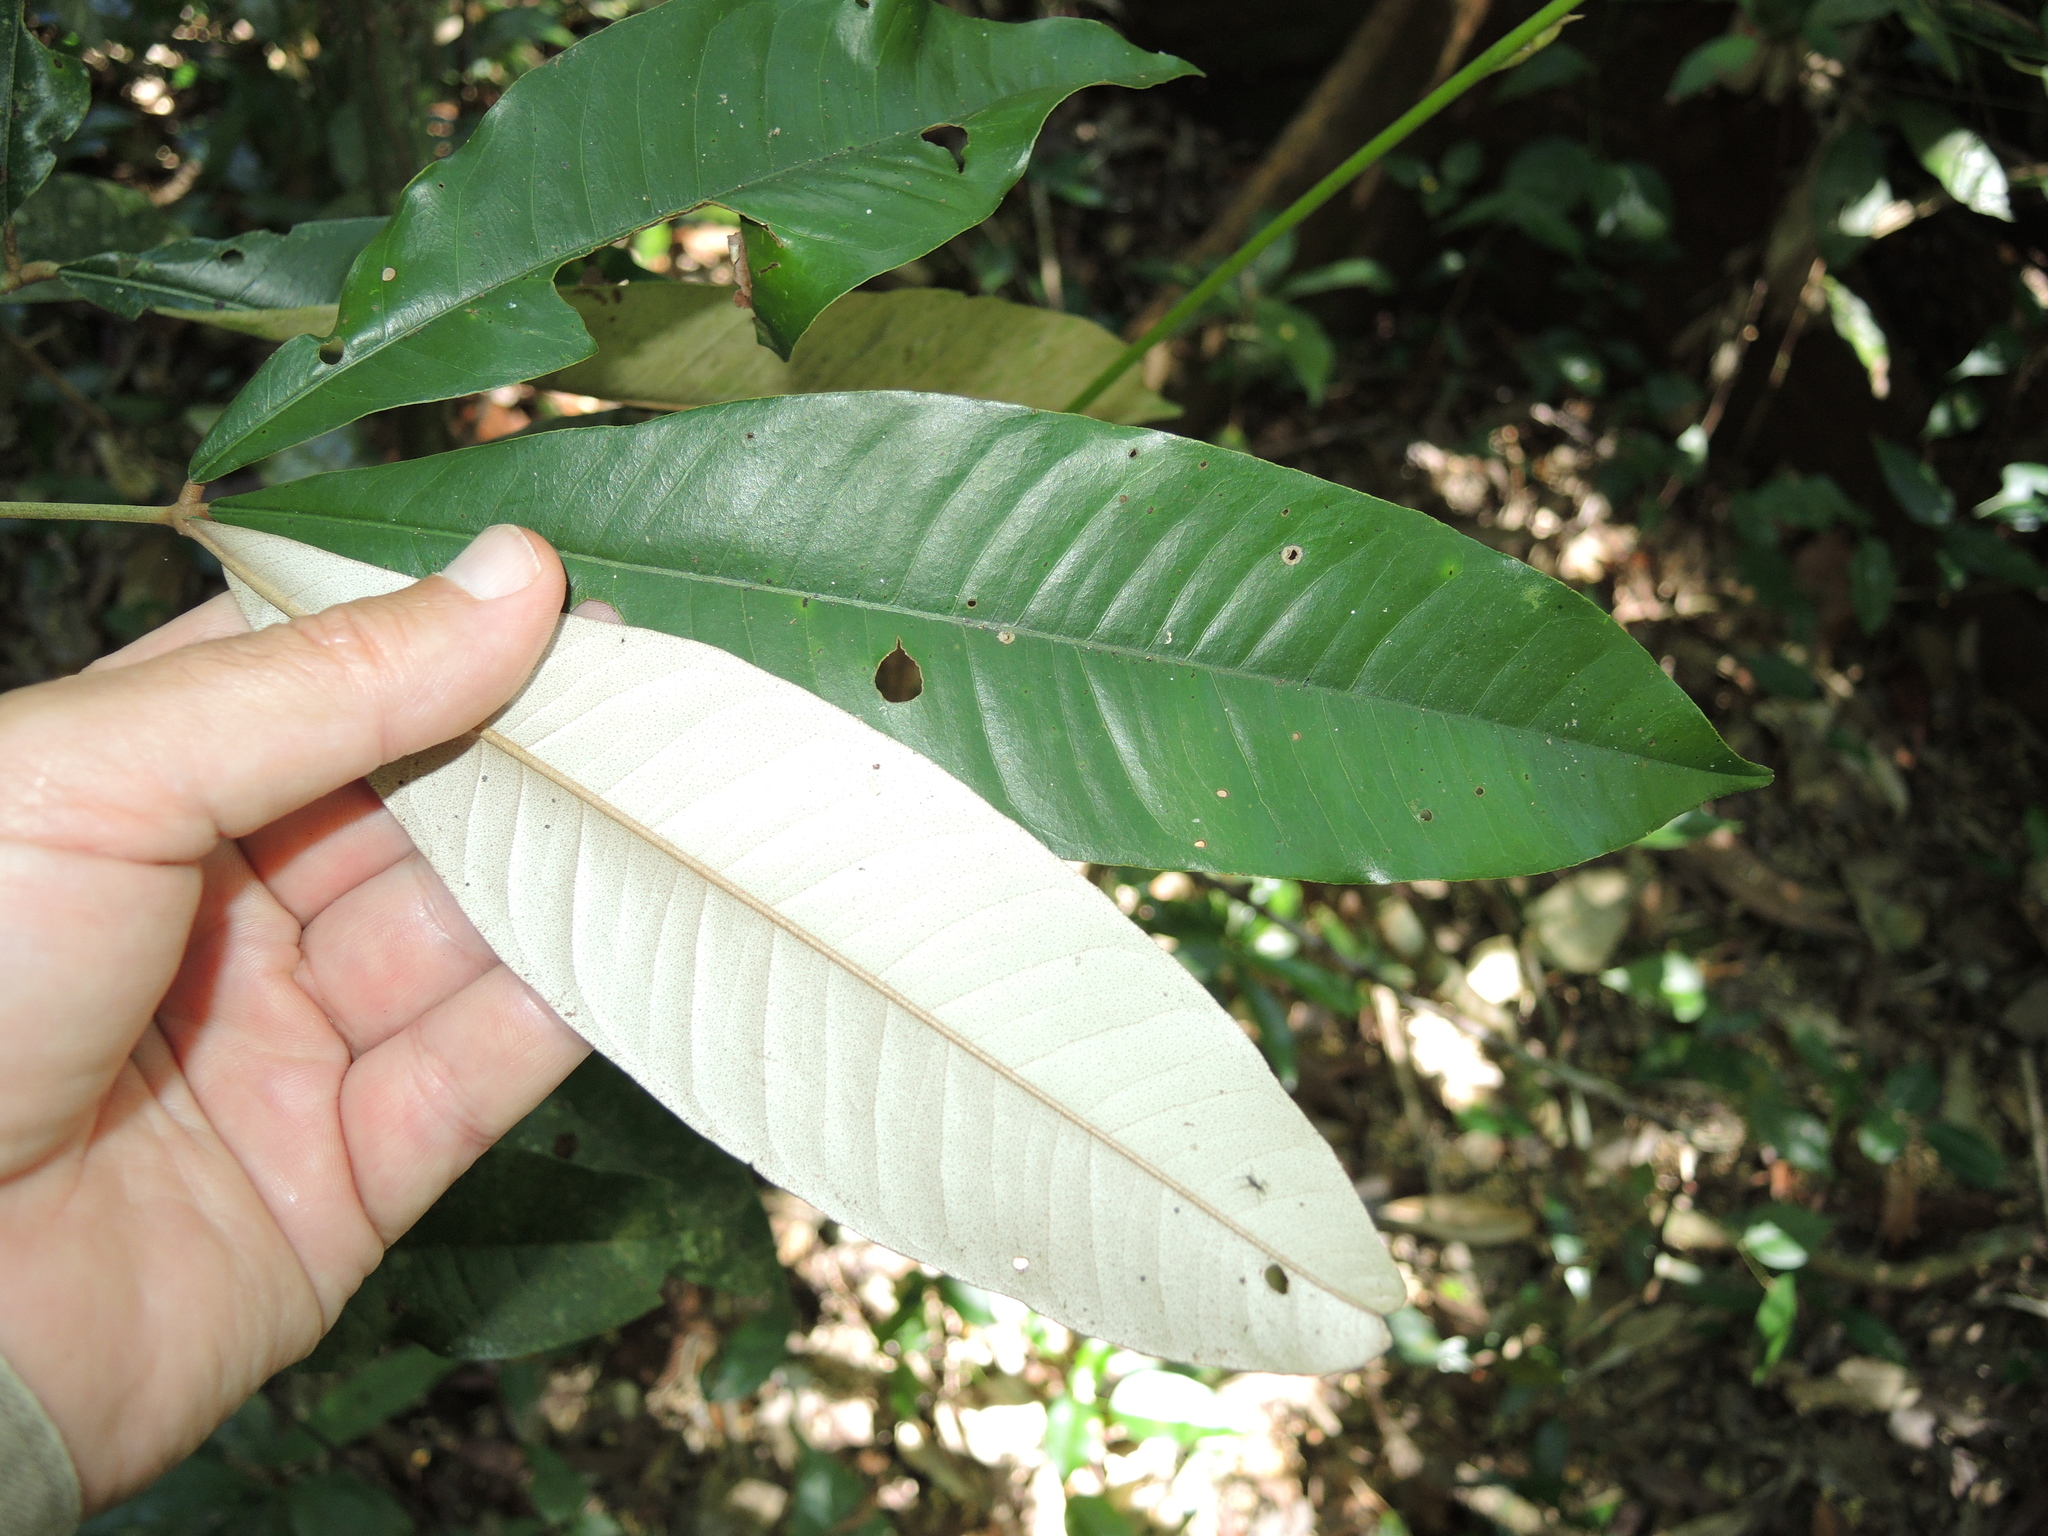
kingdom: Plantae
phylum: Tracheophyta
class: Magnoliopsida
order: Malvales
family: Malvaceae
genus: Argyrodendron
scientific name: Argyrodendron peralatum
